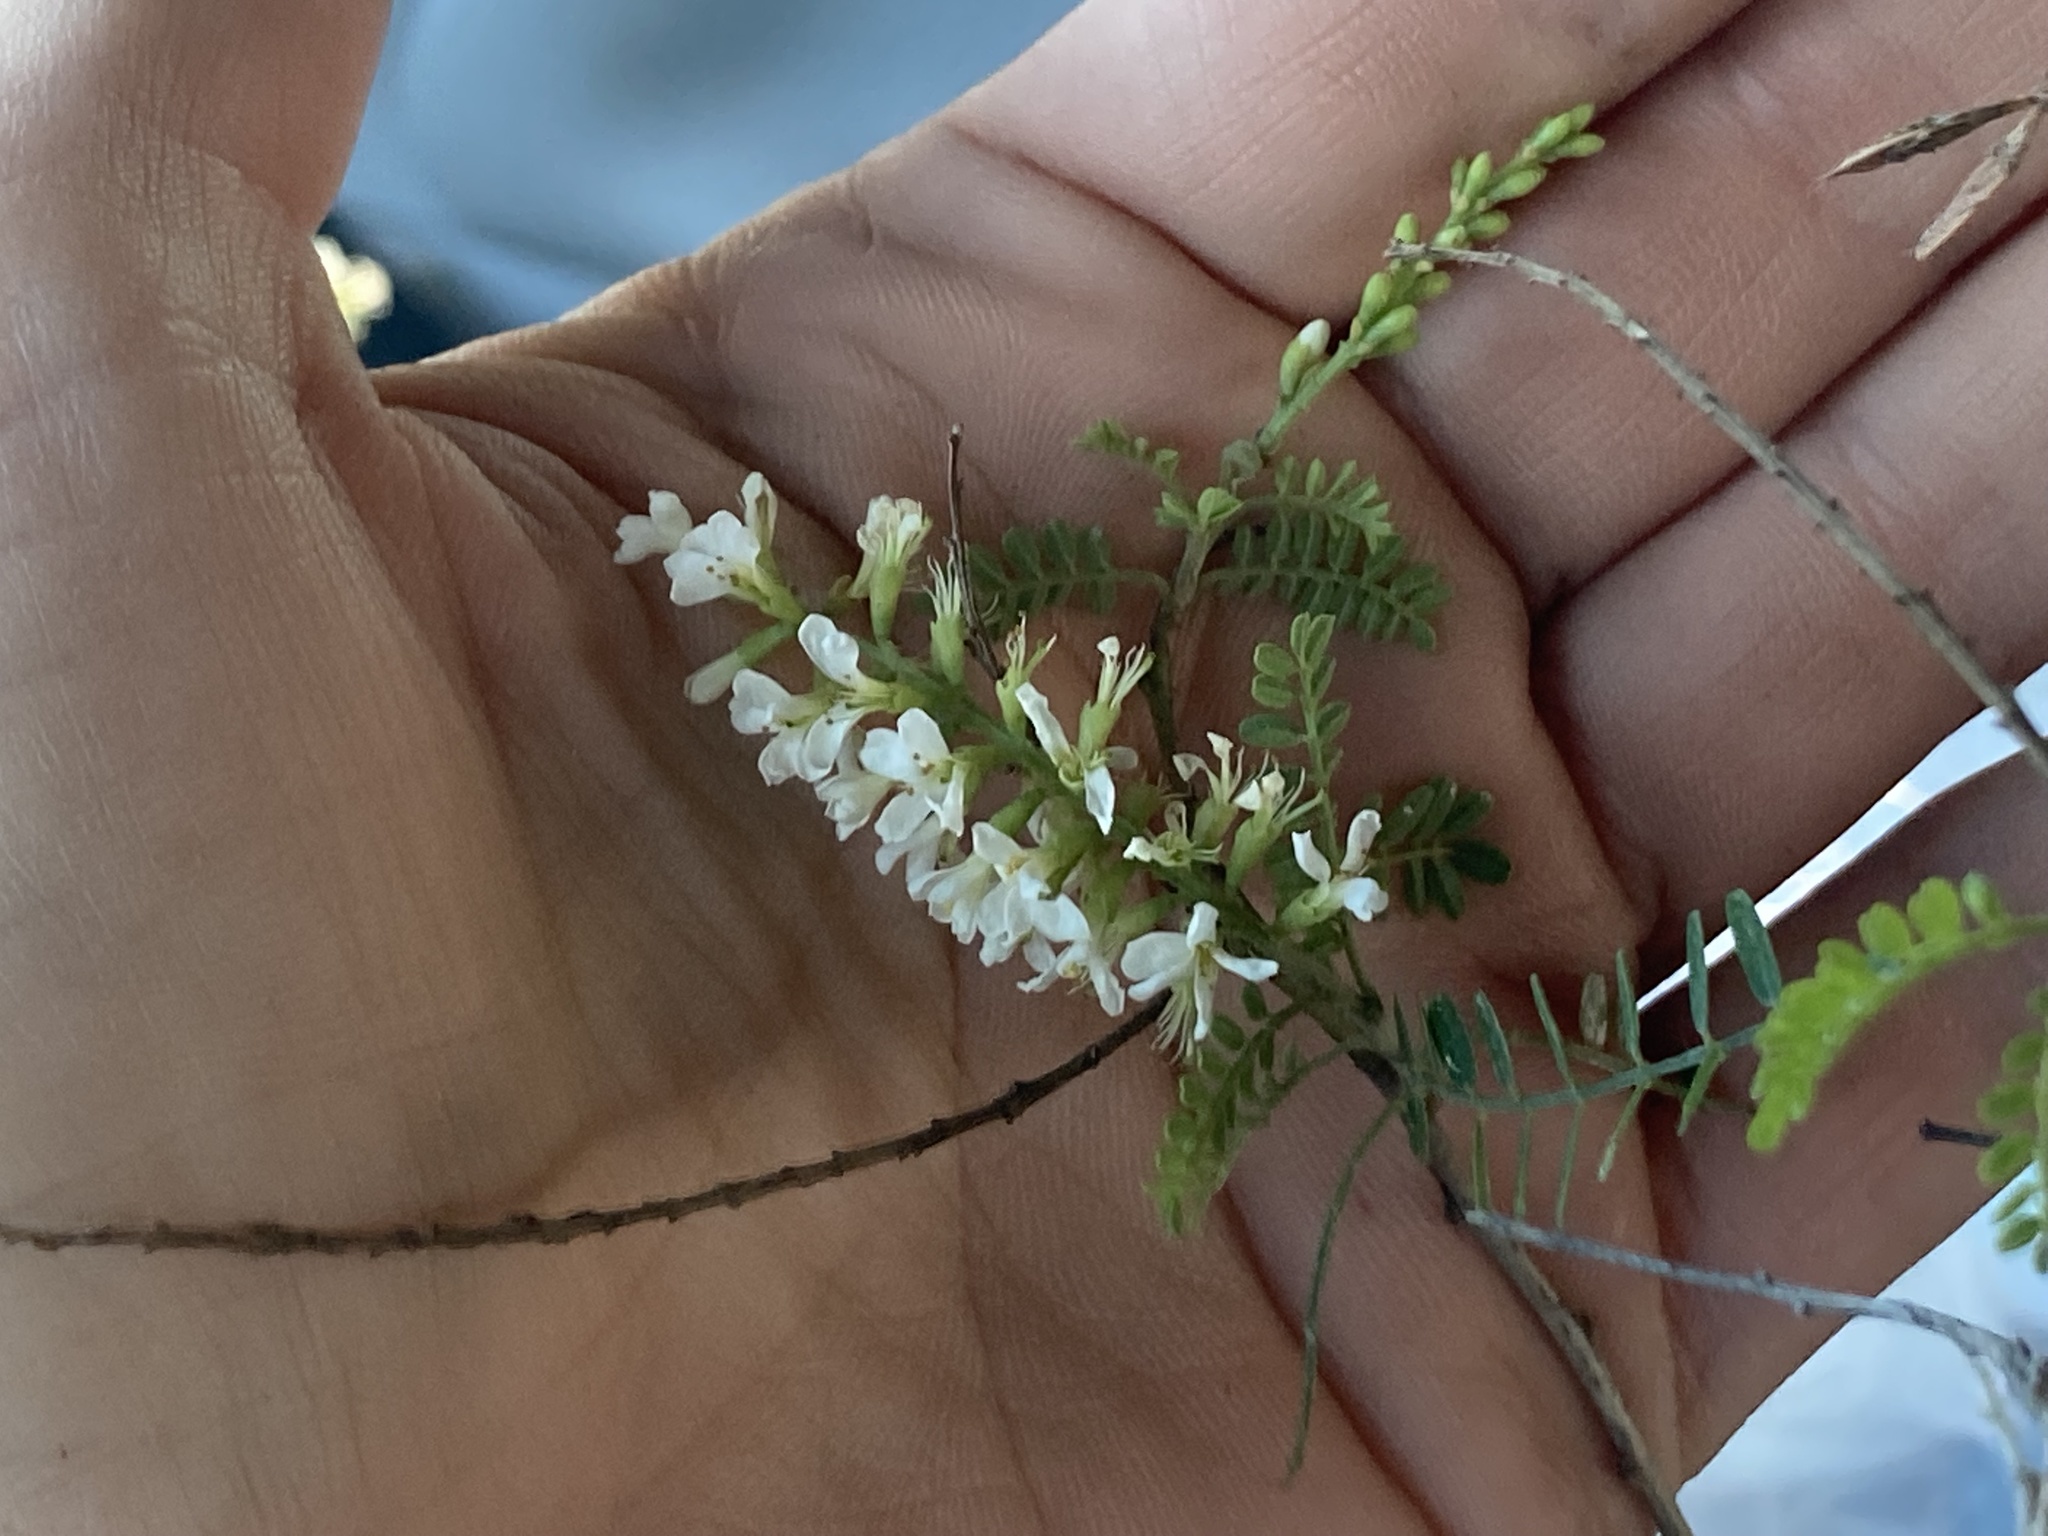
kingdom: Plantae
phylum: Tracheophyta
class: Magnoliopsida
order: Fabales
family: Fabaceae
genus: Eysenhardtia
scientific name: Eysenhardtia texana
